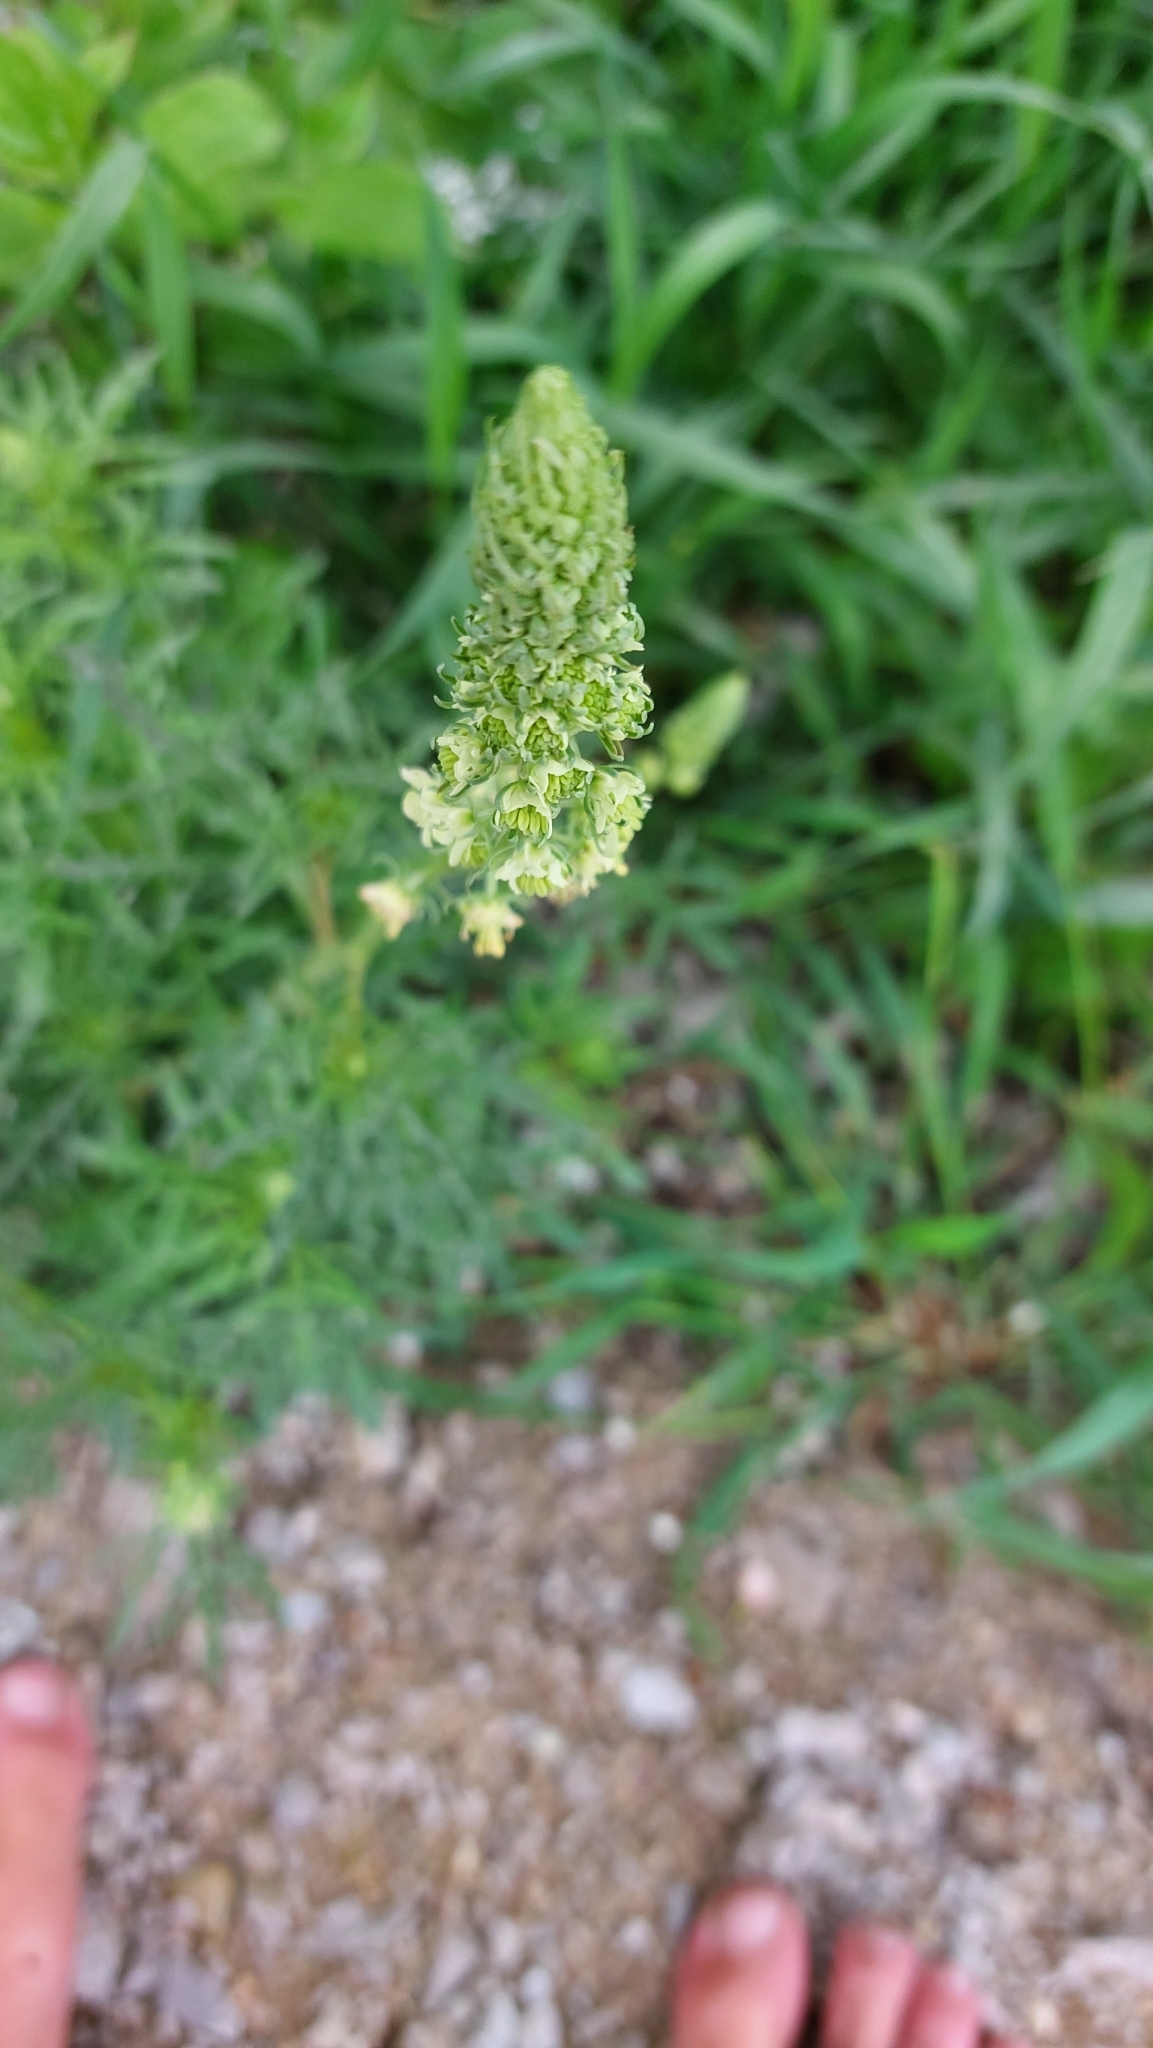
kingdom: Plantae
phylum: Tracheophyta
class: Magnoliopsida
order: Brassicales
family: Resedaceae
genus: Reseda
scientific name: Reseda lutea
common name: Wild mignonette
